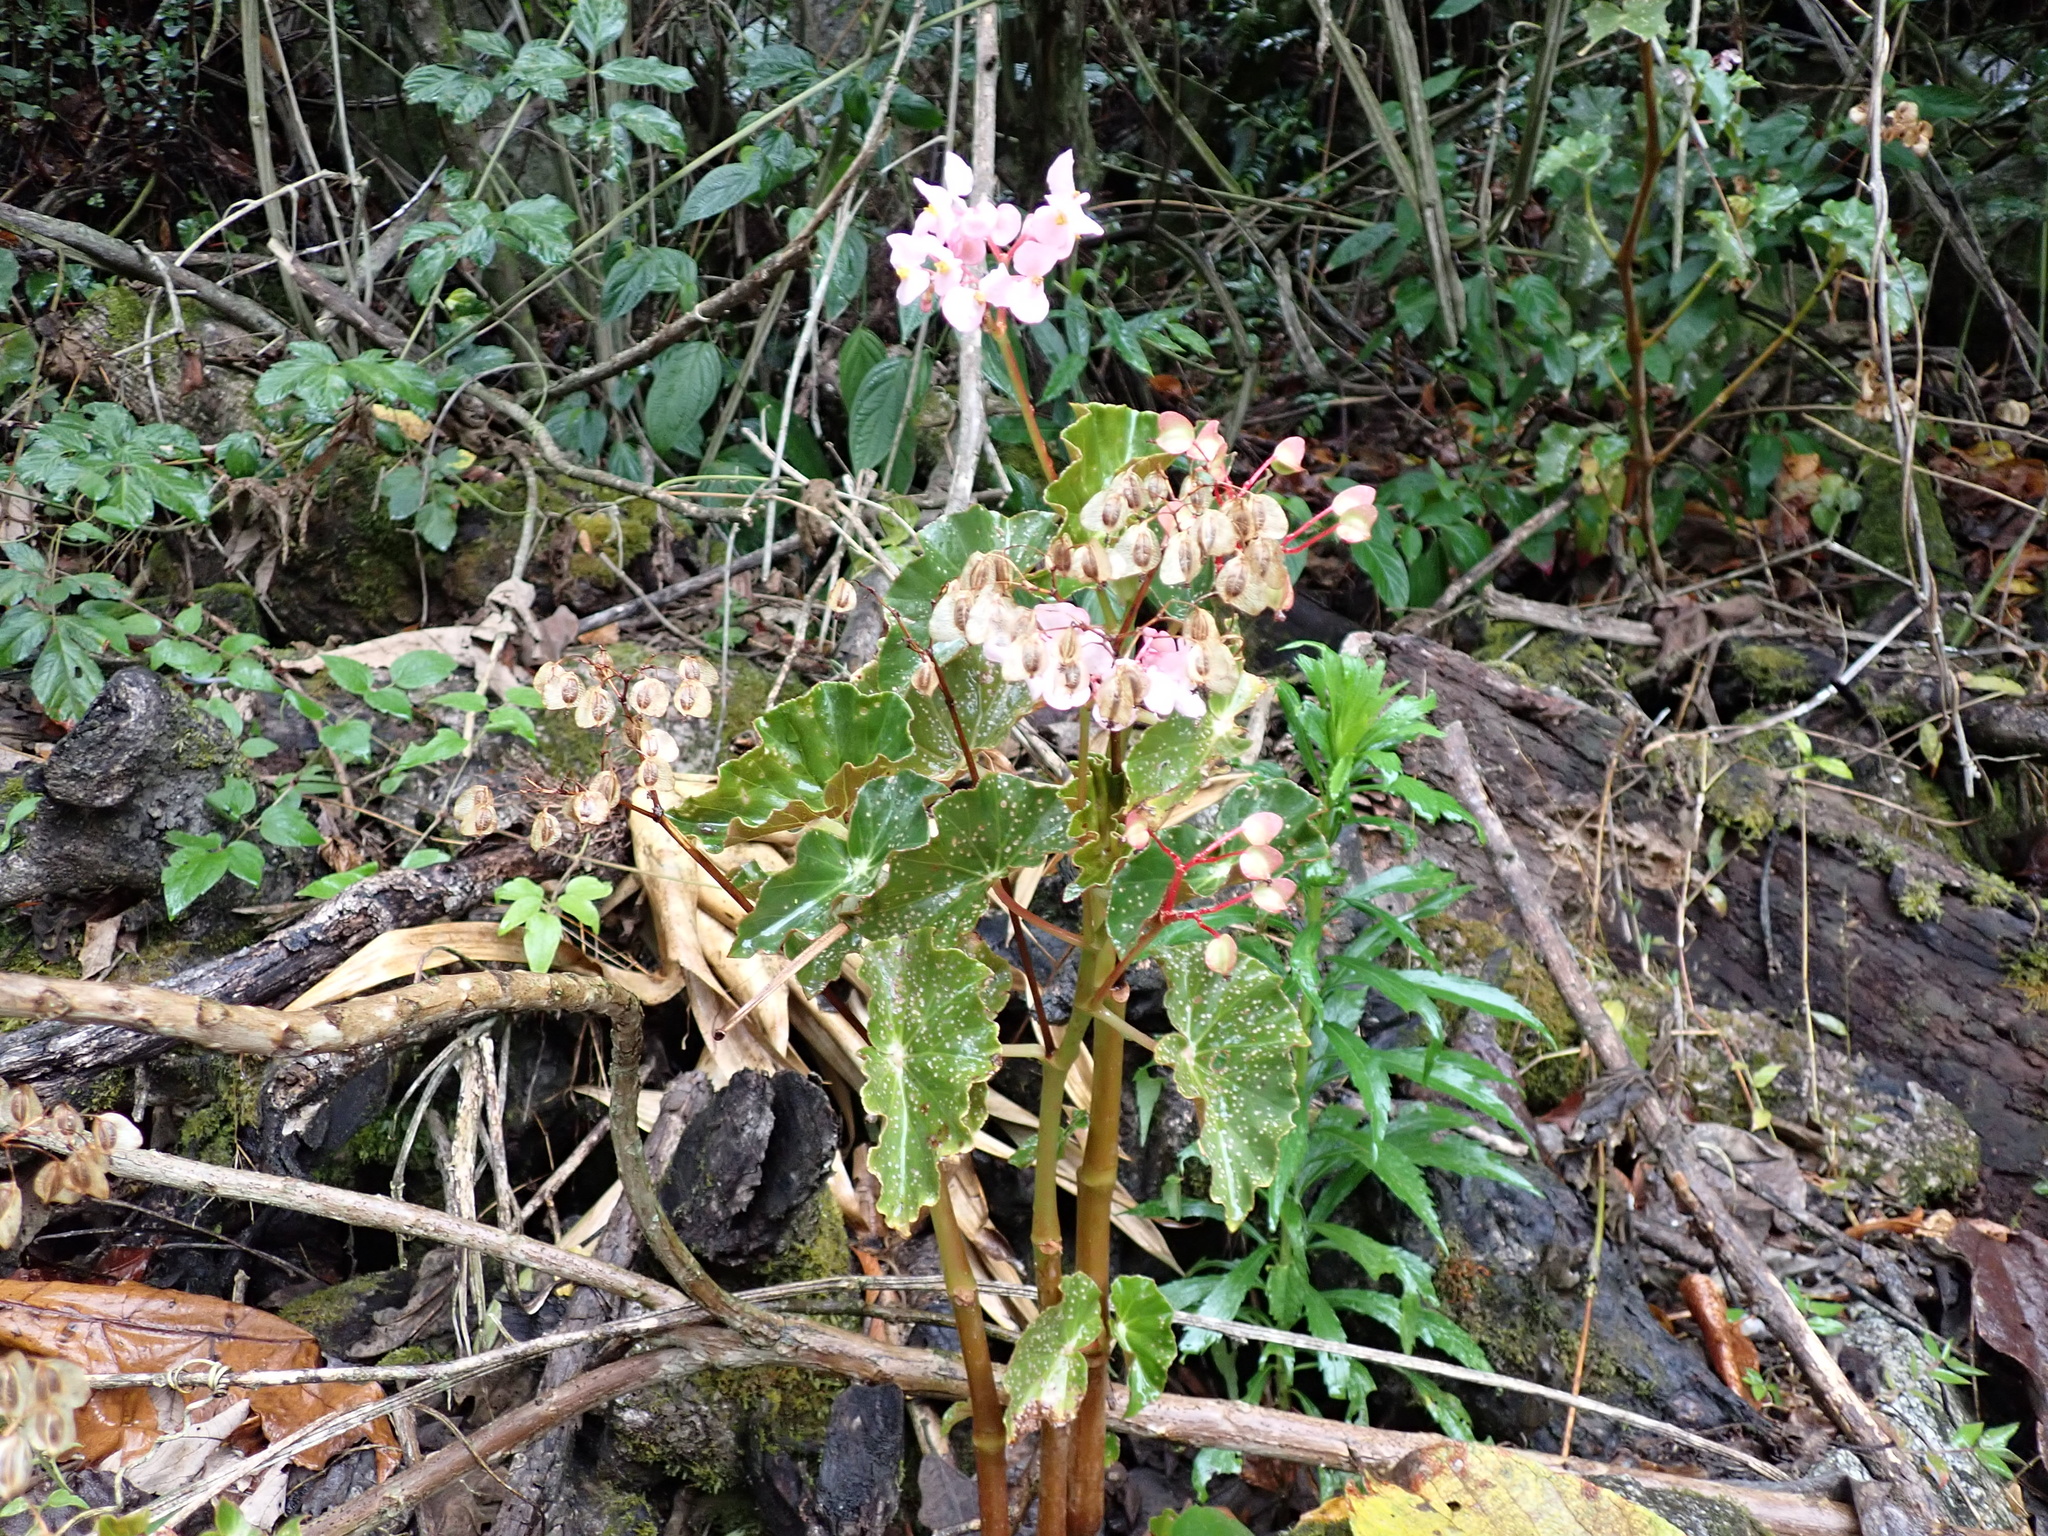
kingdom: Plantae
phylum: Tracheophyta
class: Magnoliopsida
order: Cucurbitales
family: Begoniaceae
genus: Begonia
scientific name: Begonia bracteosa
